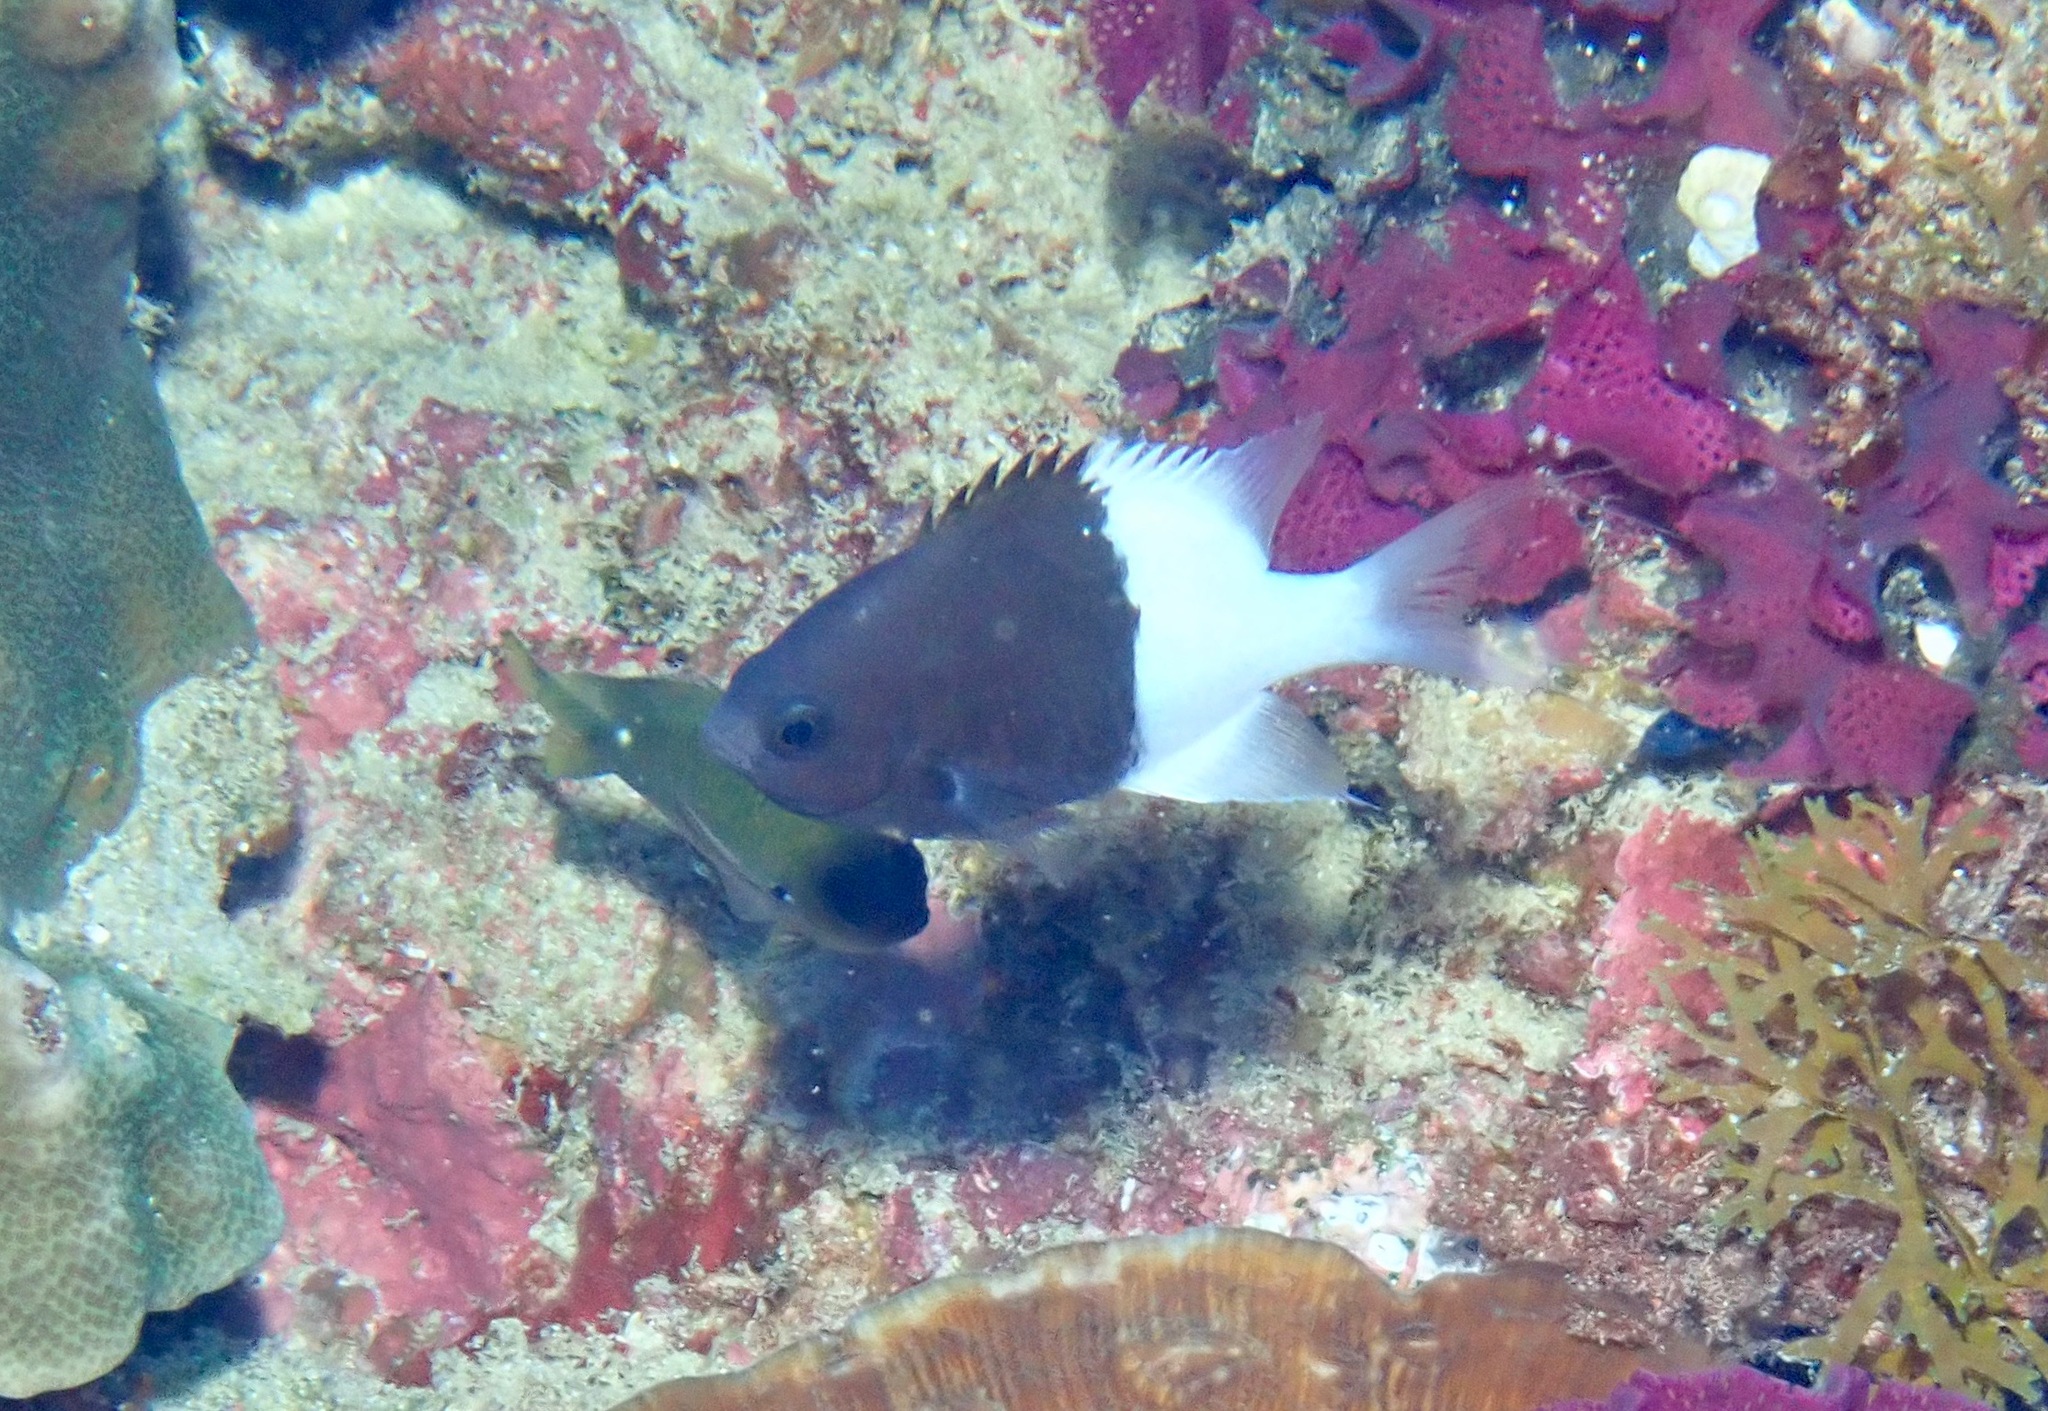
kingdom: Animalia
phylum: Chordata
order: Perciformes
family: Pomacentridae
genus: Chromis
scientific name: Chromis iomelas
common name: Half and half chromis
